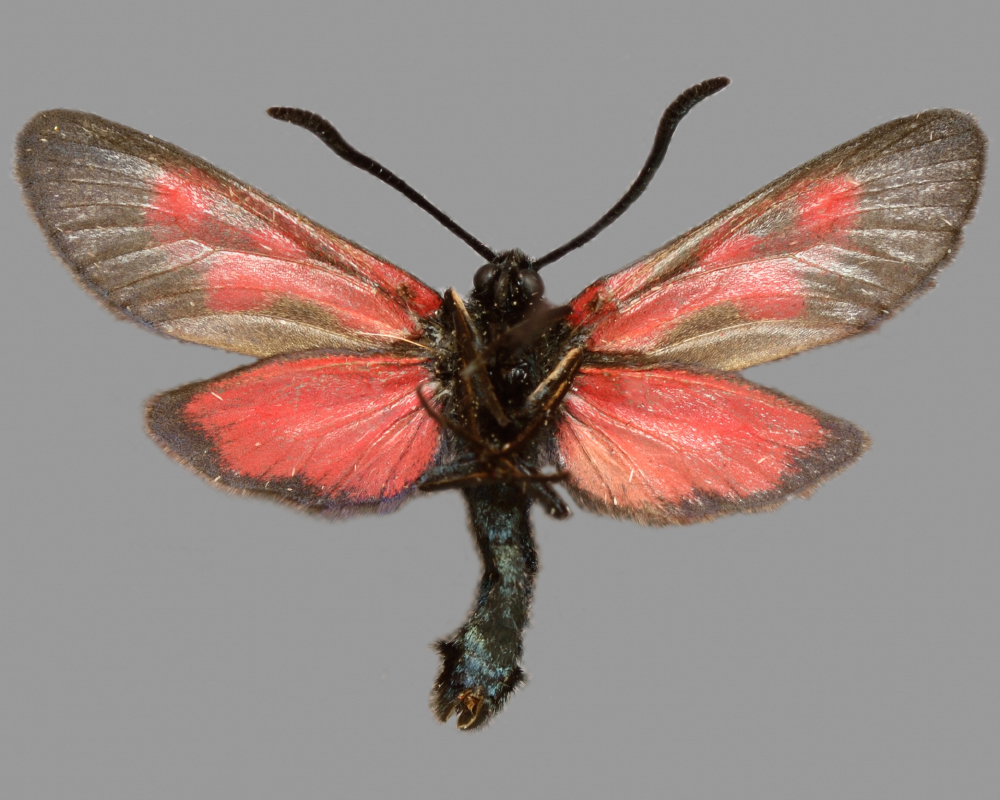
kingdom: Animalia
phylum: Arthropoda
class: Insecta
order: Lepidoptera
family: Zygaenidae
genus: Zygaena
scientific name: Zygaena viciae
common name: New forest burnet
